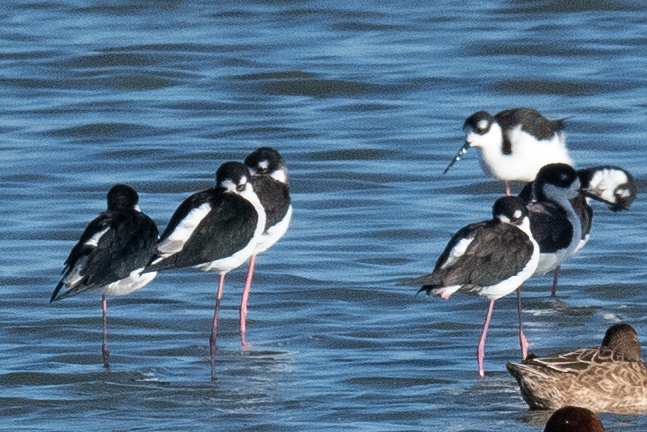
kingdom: Animalia
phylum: Chordata
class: Aves
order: Charadriiformes
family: Recurvirostridae
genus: Himantopus
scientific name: Himantopus mexicanus
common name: Black-necked stilt
